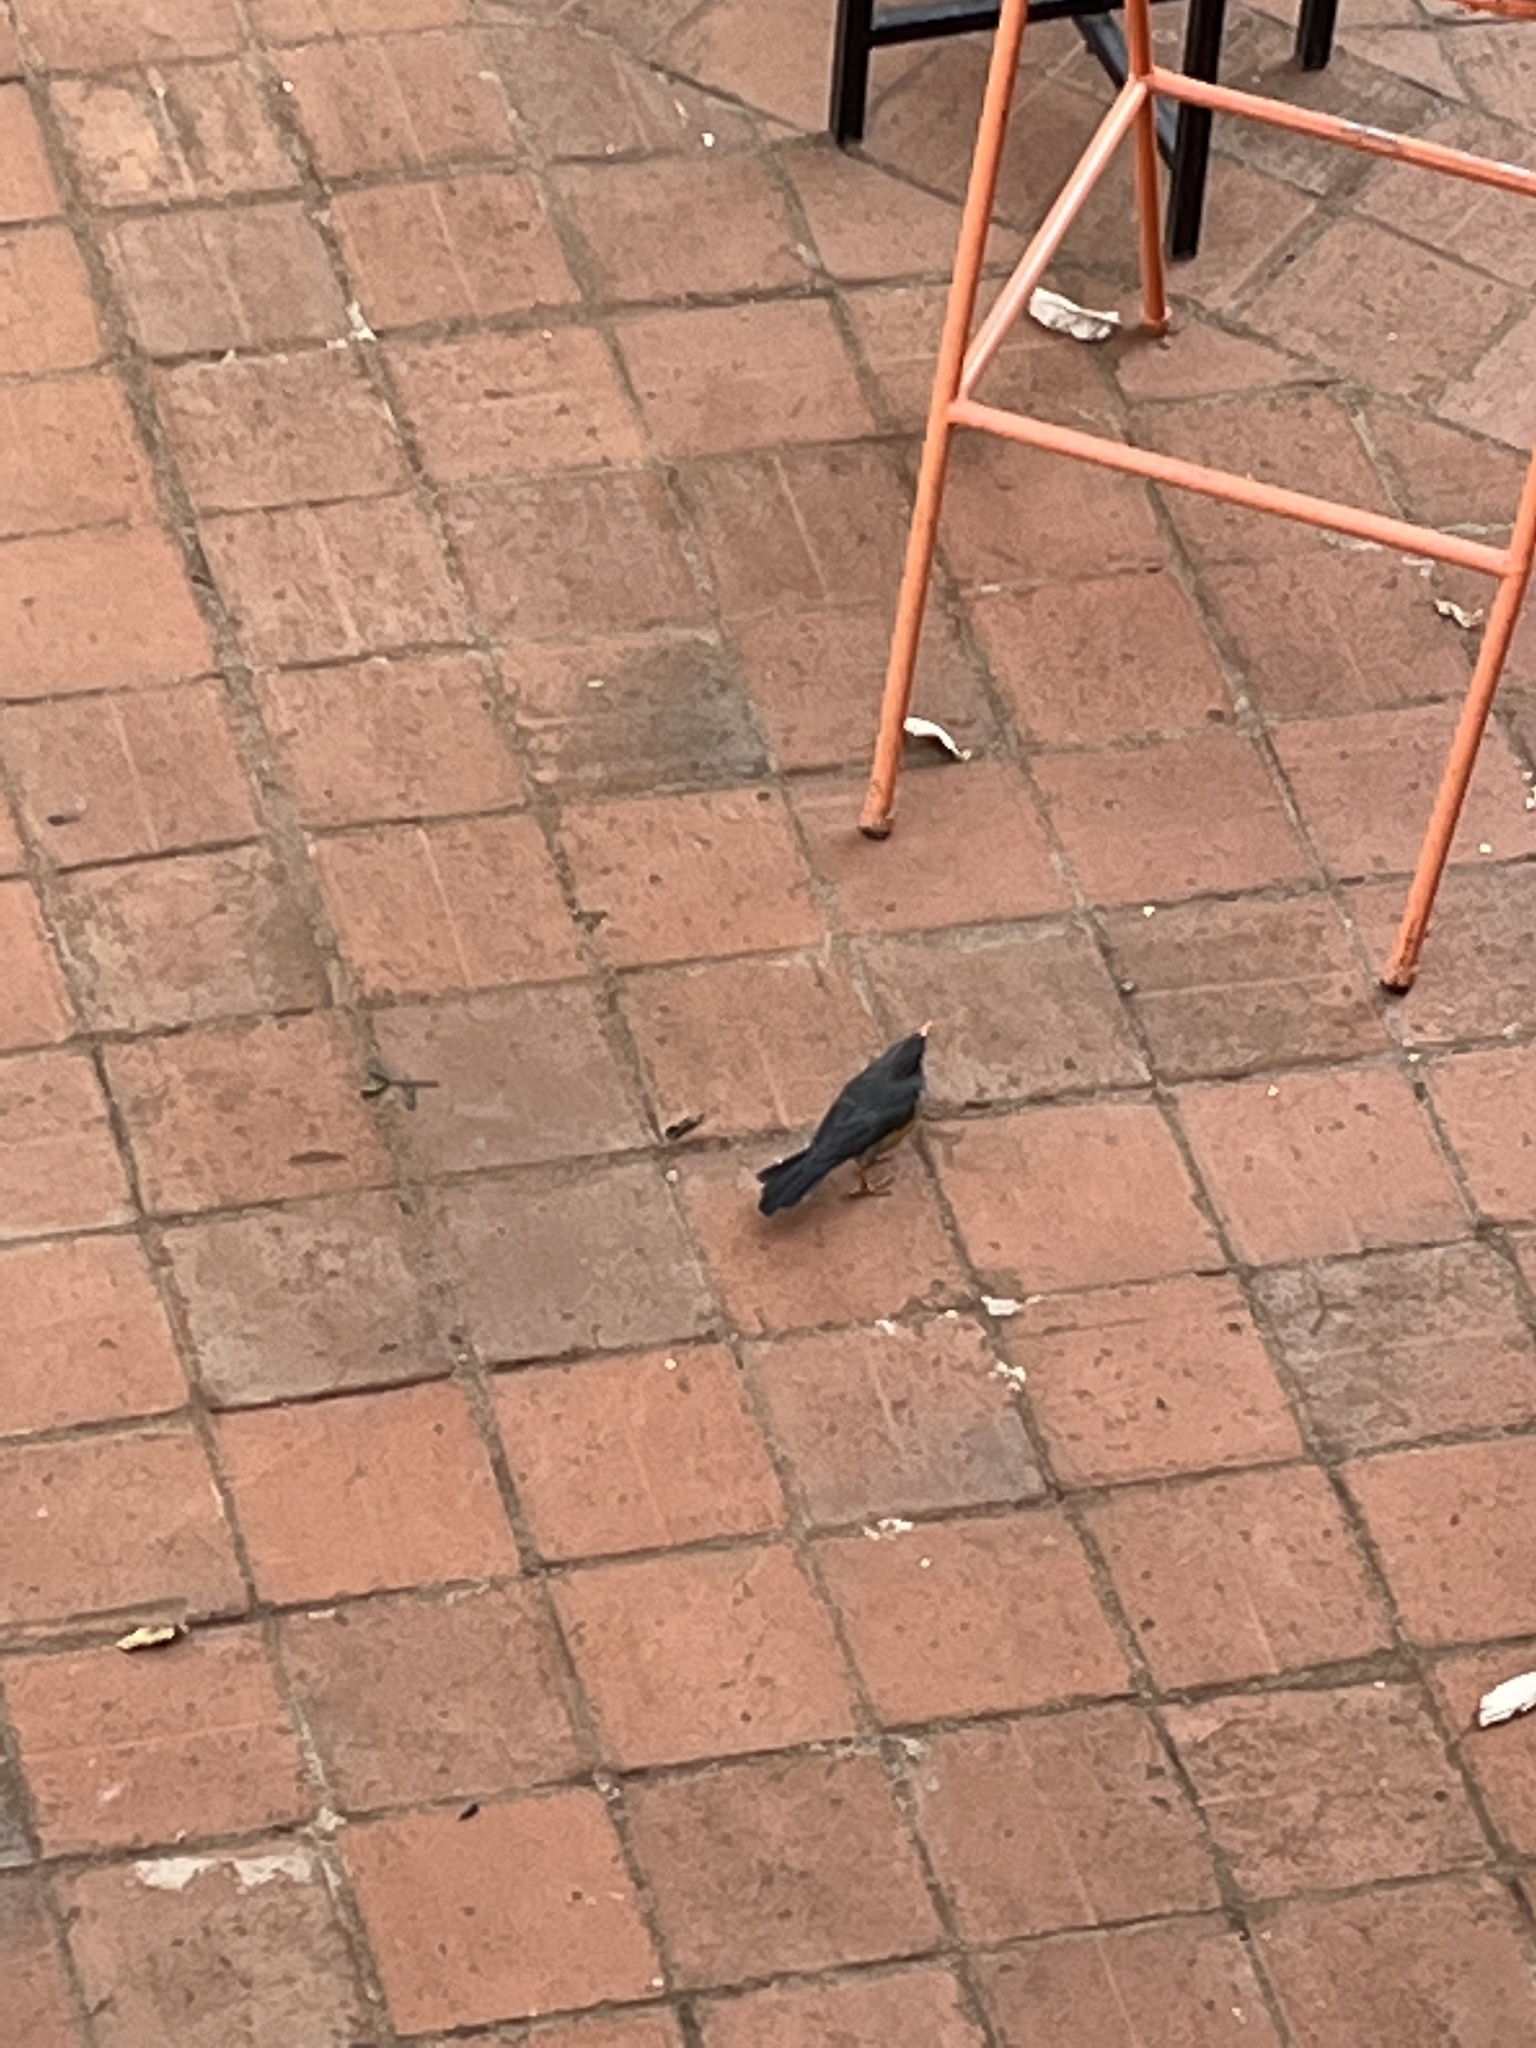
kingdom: Animalia
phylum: Chordata
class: Aves
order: Passeriformes
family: Turdidae
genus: Turdus
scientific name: Turdus abyssinicus
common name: Abyssinian thrush
